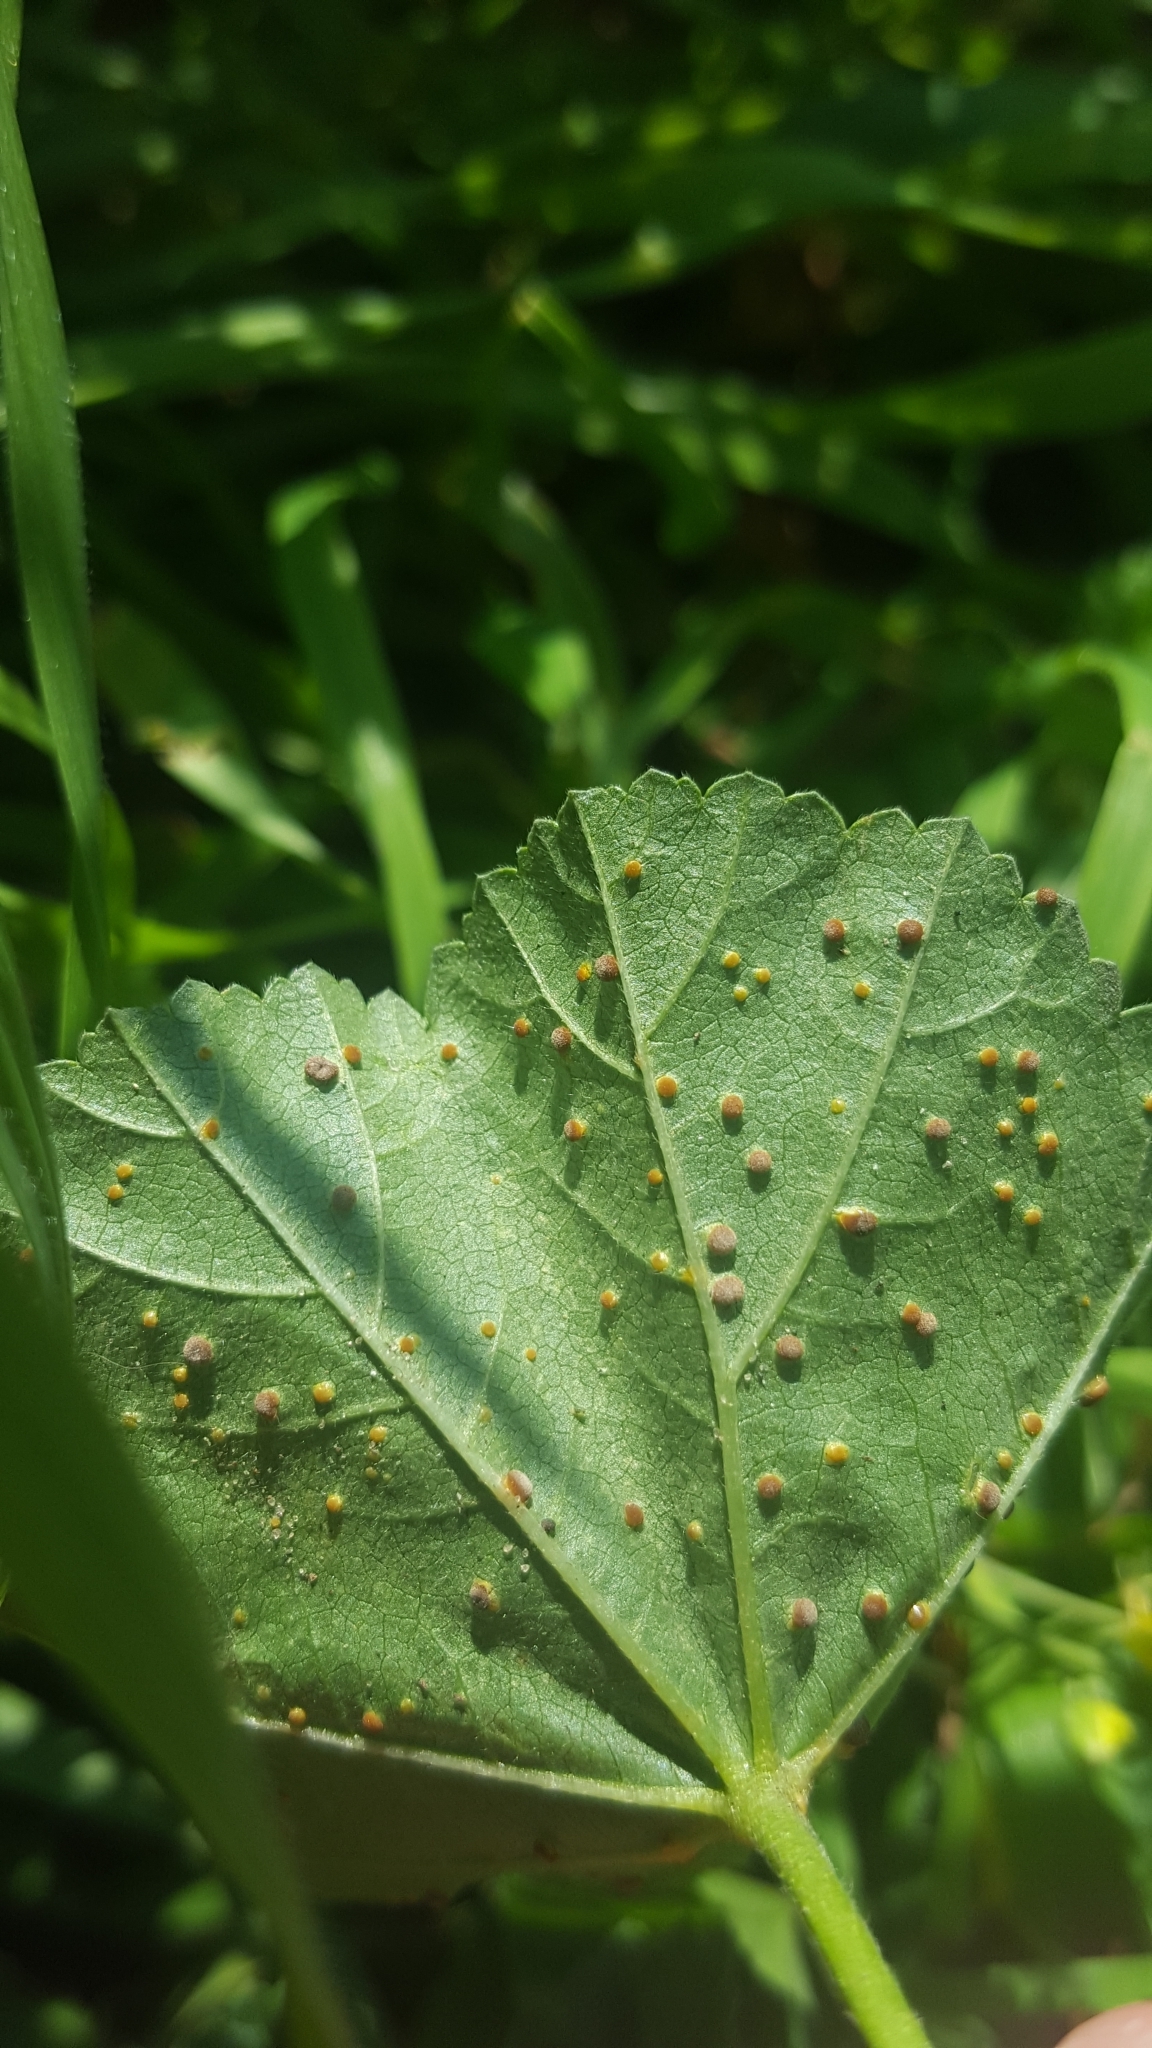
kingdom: Fungi
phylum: Basidiomycota
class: Pucciniomycetes
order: Pucciniales
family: Pucciniaceae
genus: Puccinia
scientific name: Puccinia malvacearum
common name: Hollyhock rust
